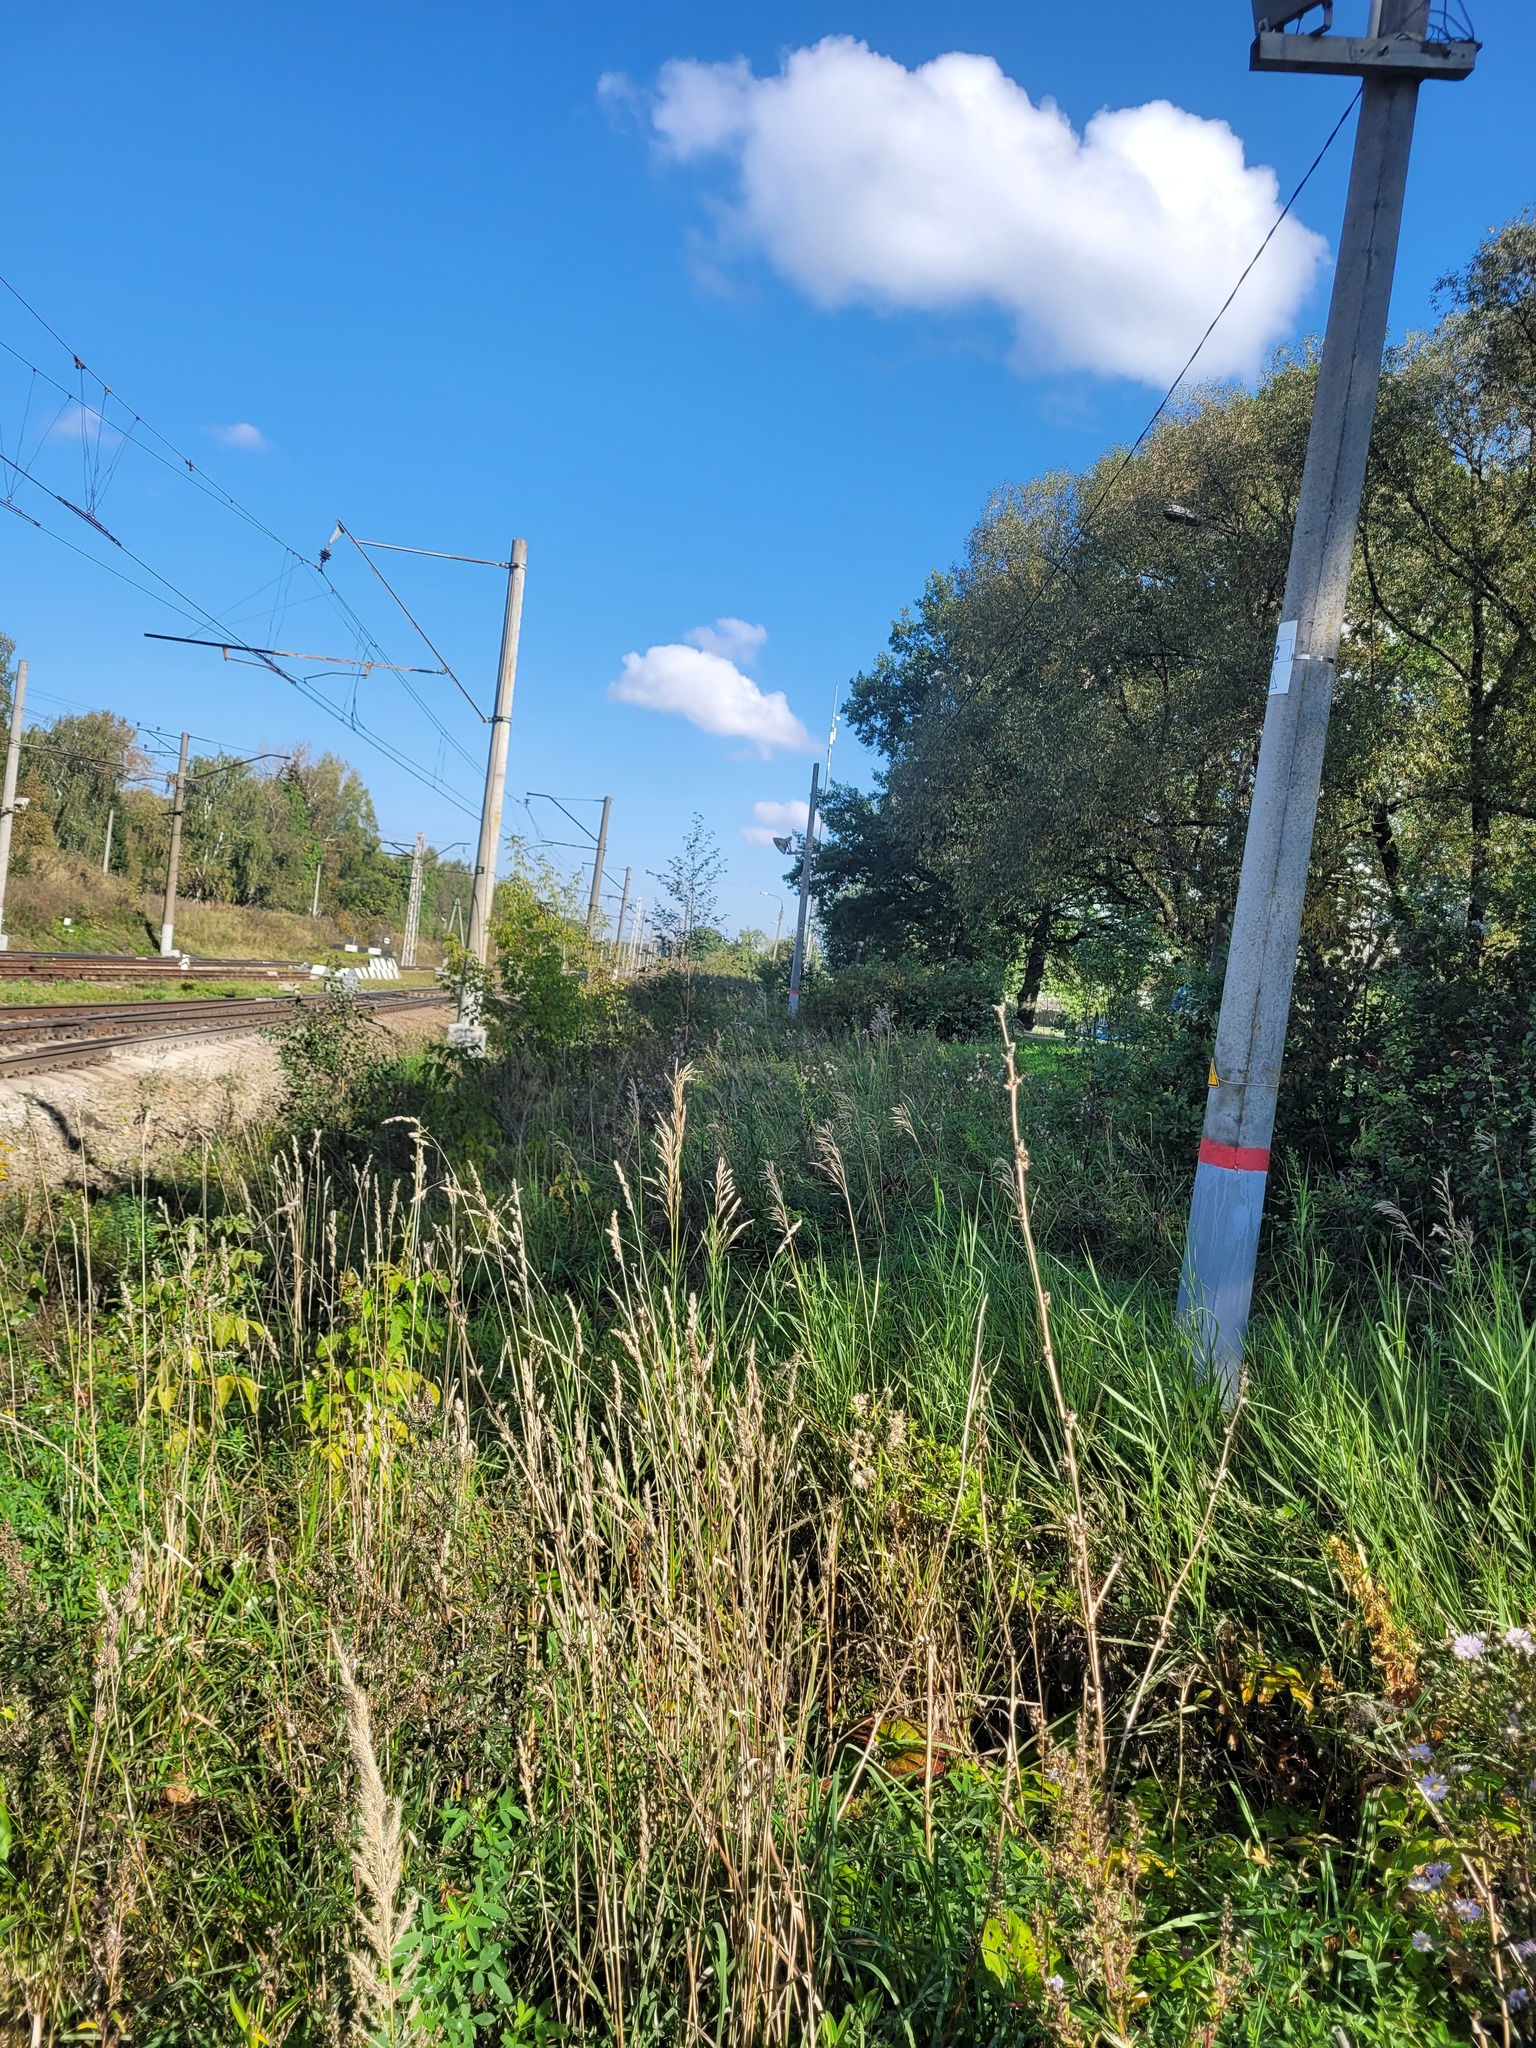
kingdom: Plantae
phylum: Tracheophyta
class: Liliopsida
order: Poales
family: Poaceae
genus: Bromus
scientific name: Bromus inermis
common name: Smooth brome
